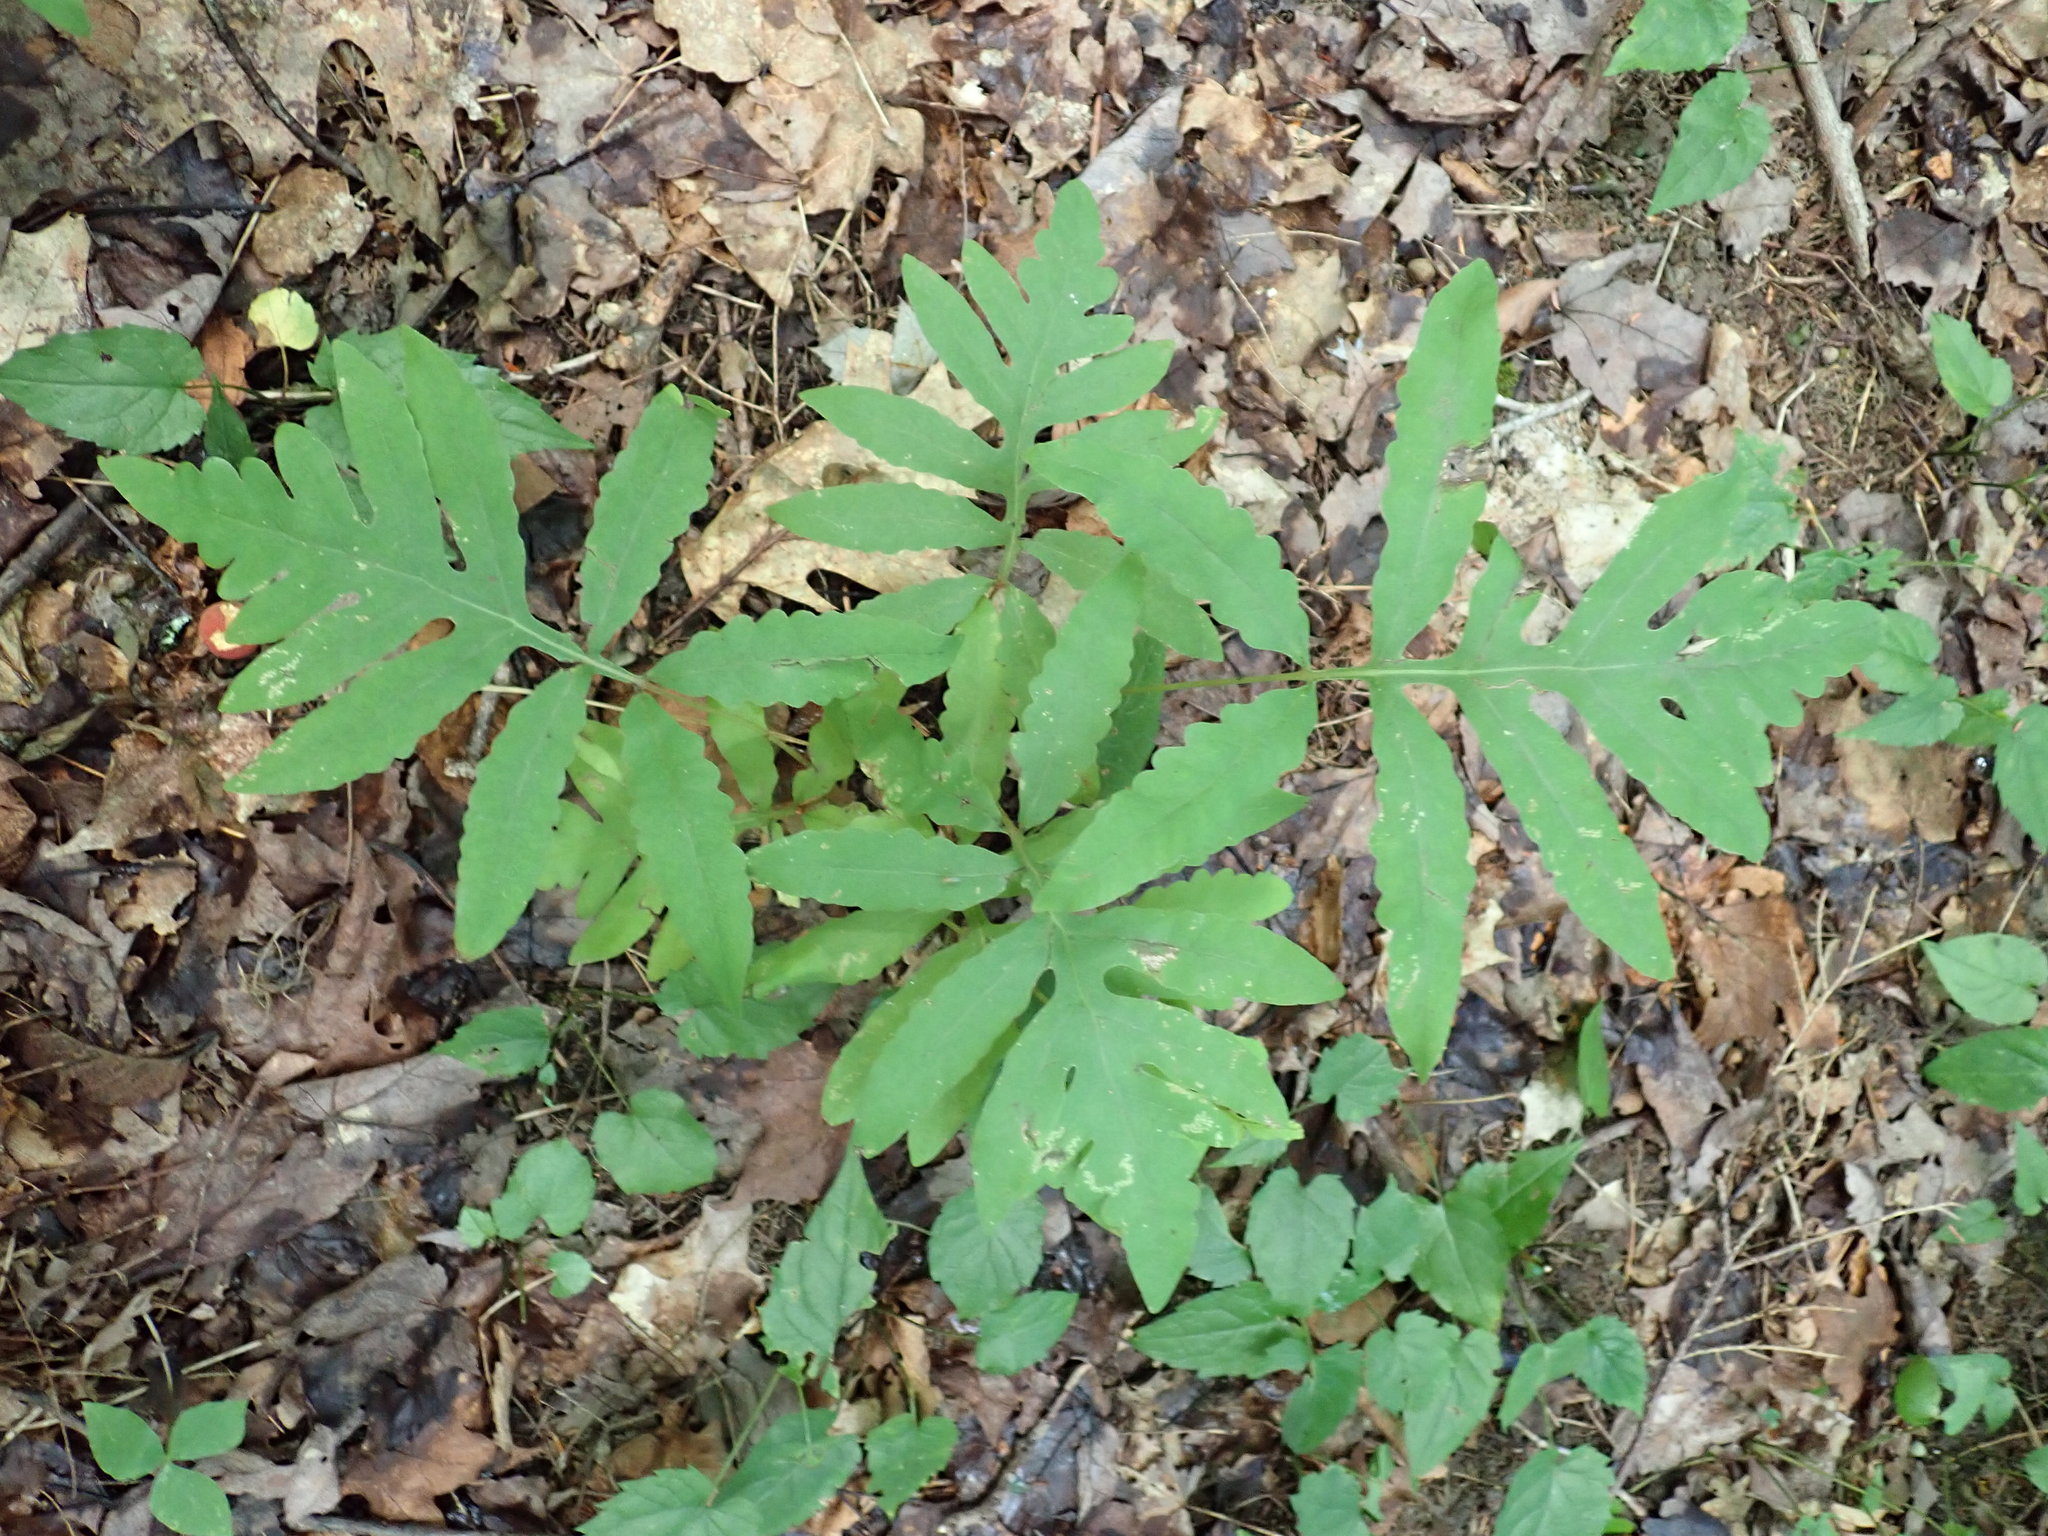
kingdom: Plantae
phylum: Tracheophyta
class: Polypodiopsida
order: Polypodiales
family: Onocleaceae
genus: Onoclea
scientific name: Onoclea sensibilis
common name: Sensitive fern
